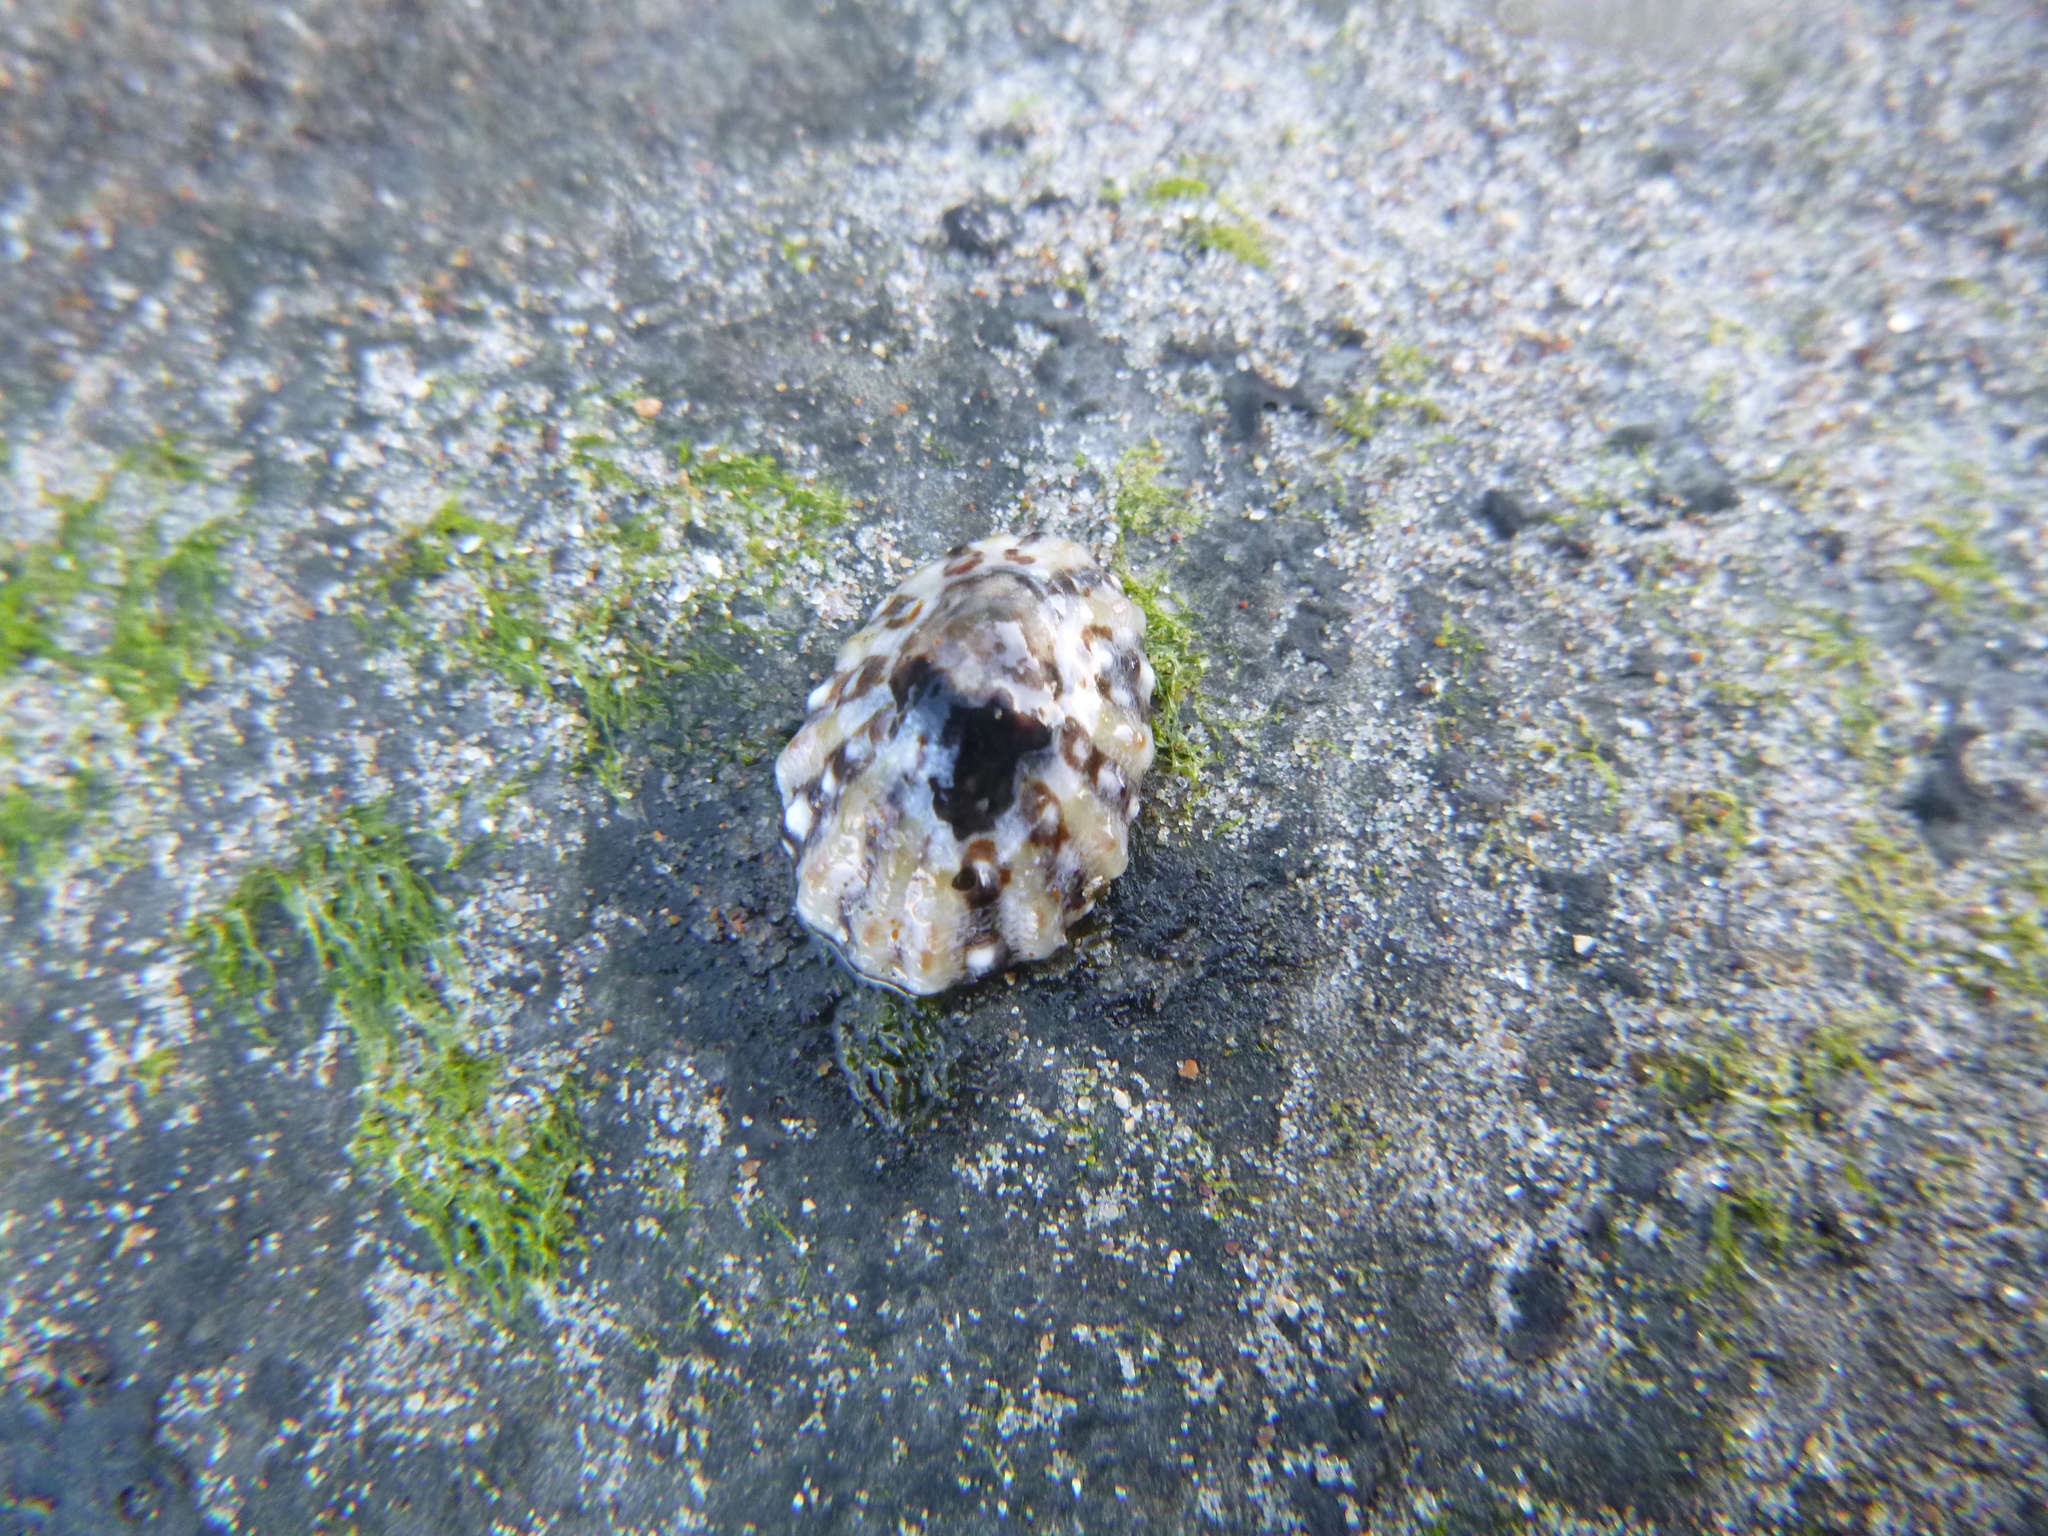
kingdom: Animalia
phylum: Mollusca
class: Gastropoda
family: Nacellidae
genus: Cellana
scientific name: Cellana ornata
